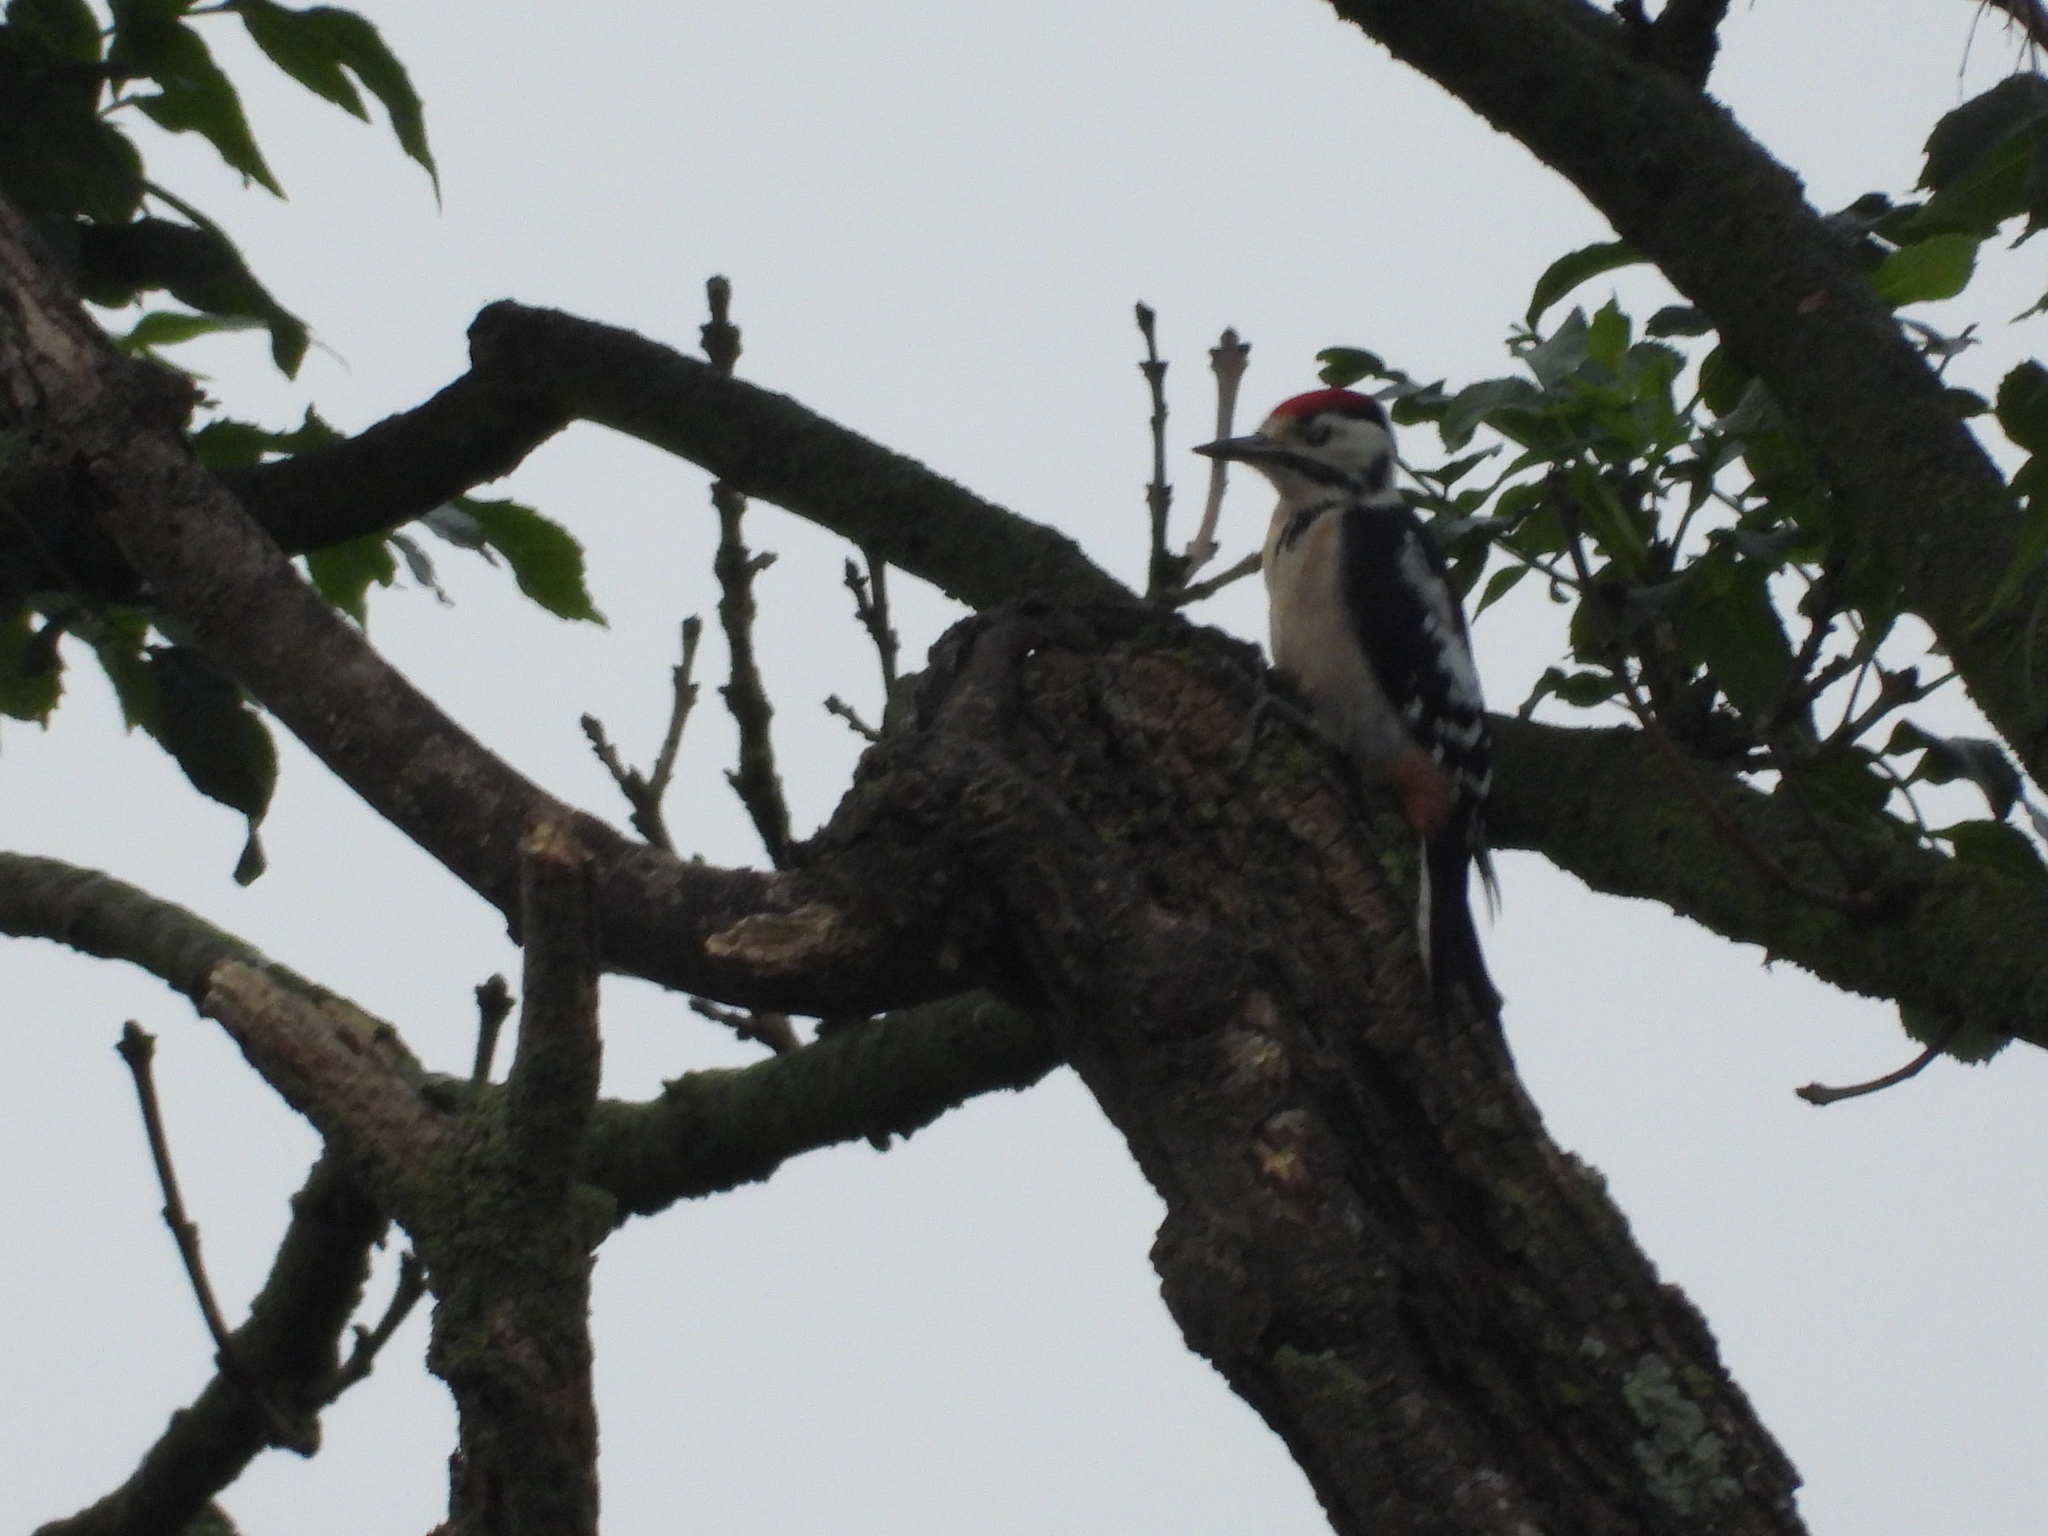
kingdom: Animalia
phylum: Chordata
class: Aves
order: Piciformes
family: Picidae
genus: Dendrocopos
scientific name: Dendrocopos major
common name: Great spotted woodpecker
